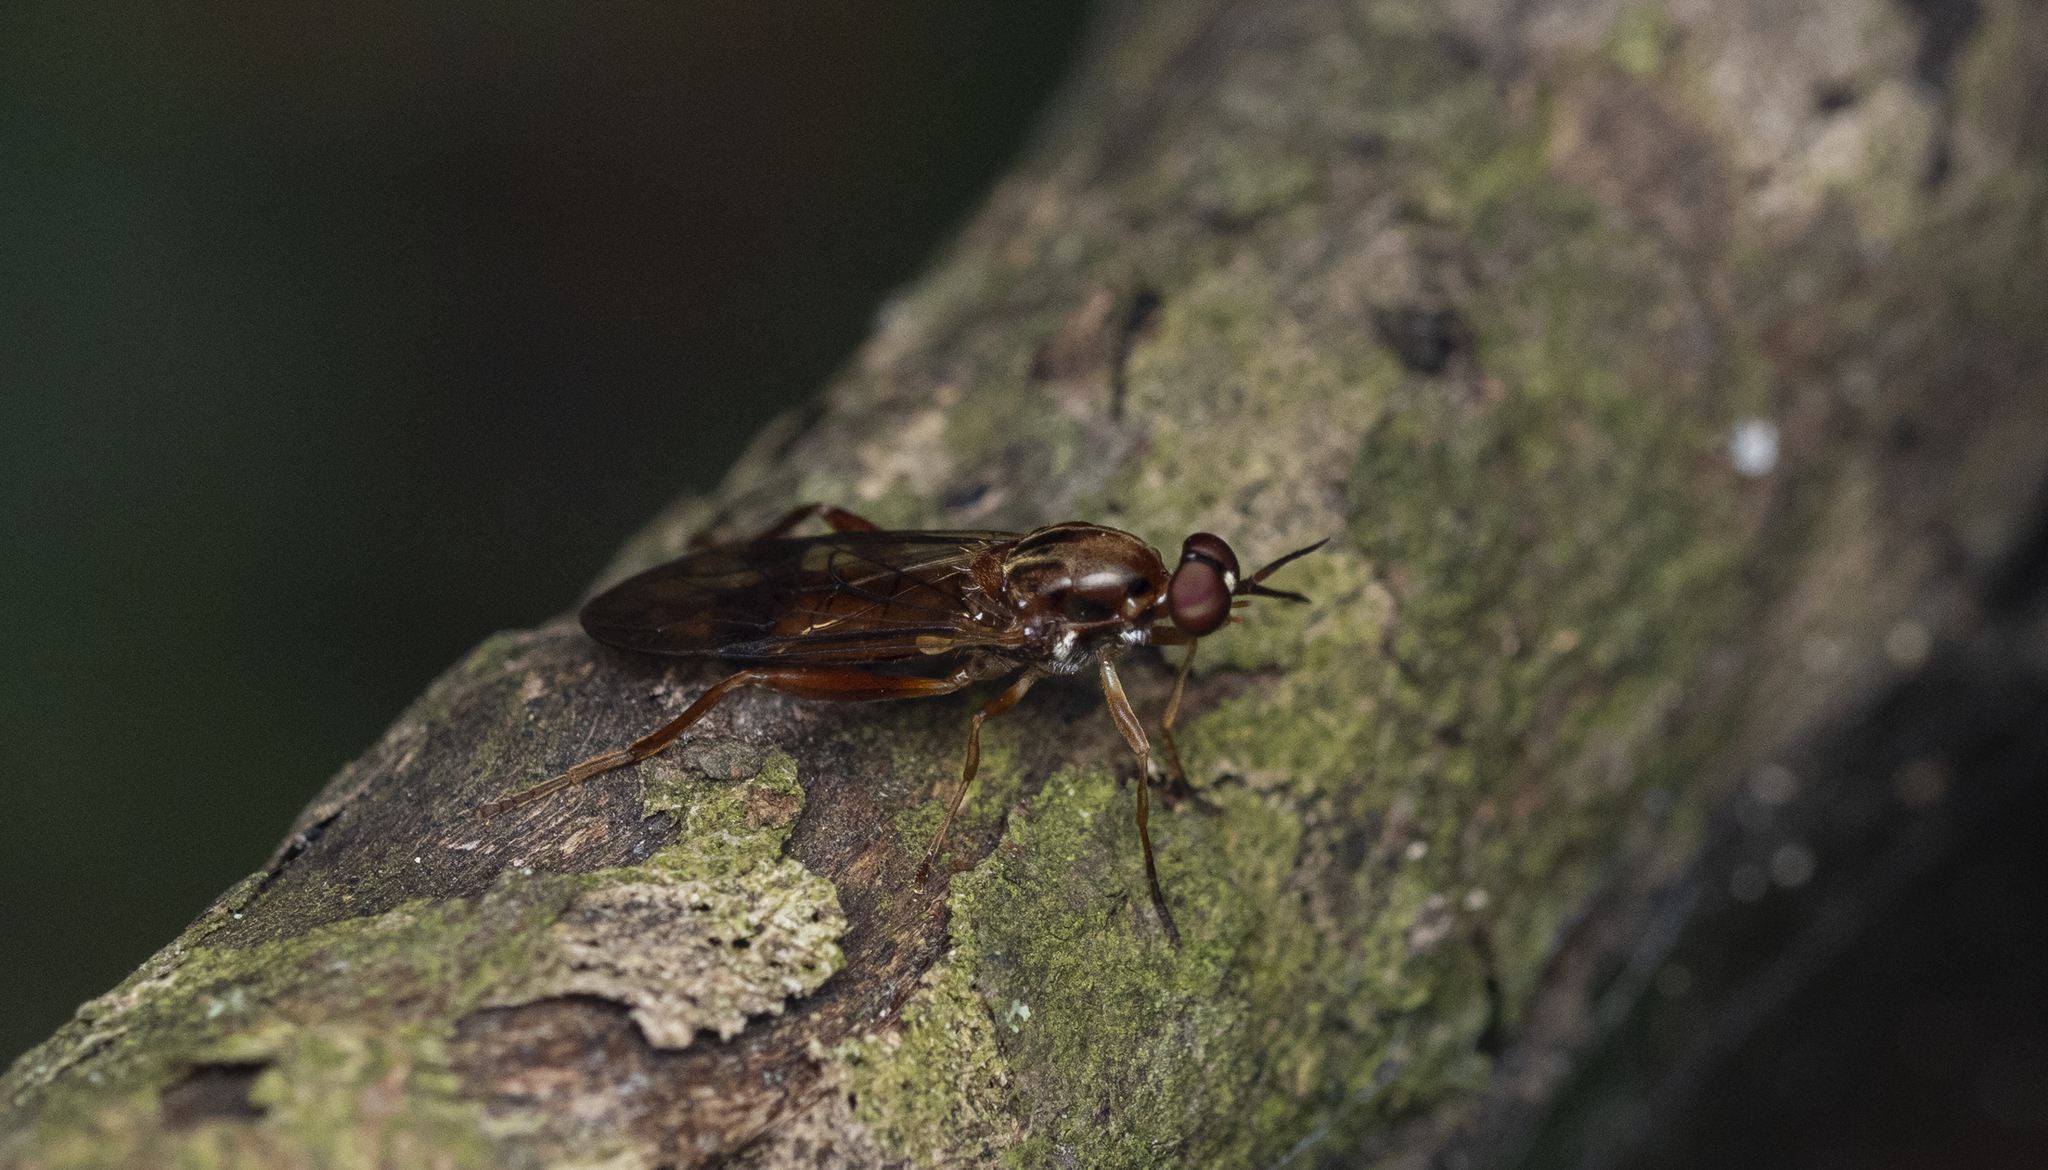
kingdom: Animalia
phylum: Arthropoda
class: Insecta
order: Diptera
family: Stratiomyidae
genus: Benhamyia
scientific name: Benhamyia straznitzkii
